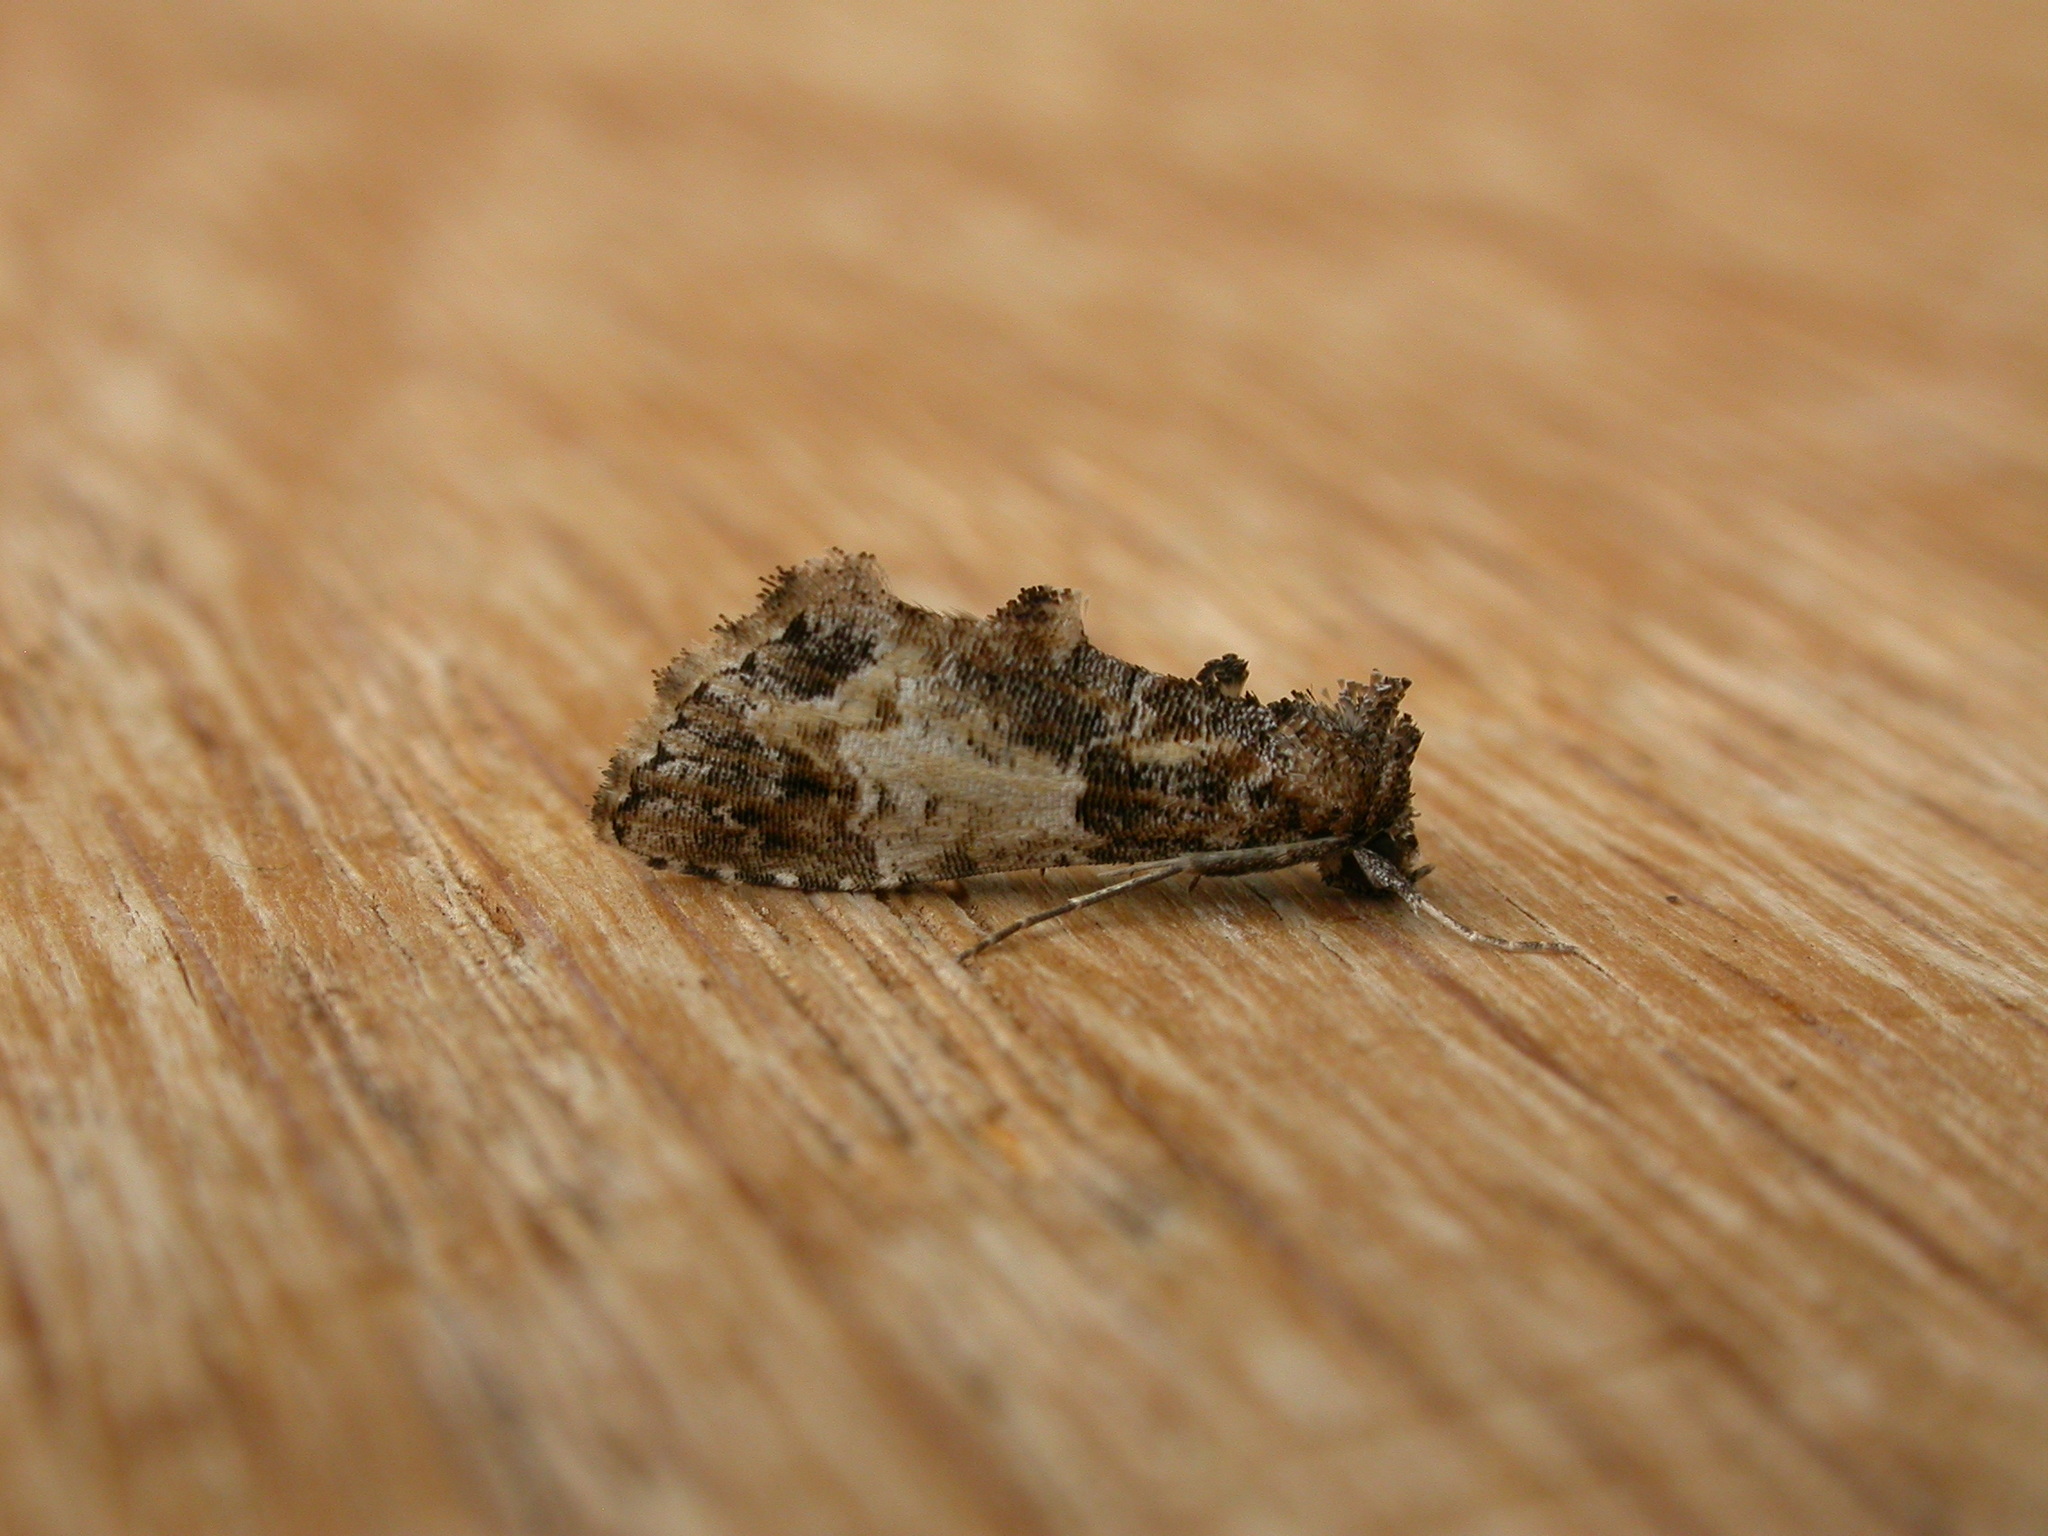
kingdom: Animalia
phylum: Arthropoda
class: Insecta
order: Lepidoptera
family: Erebidae
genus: Arrade
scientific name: Arrade destituta
